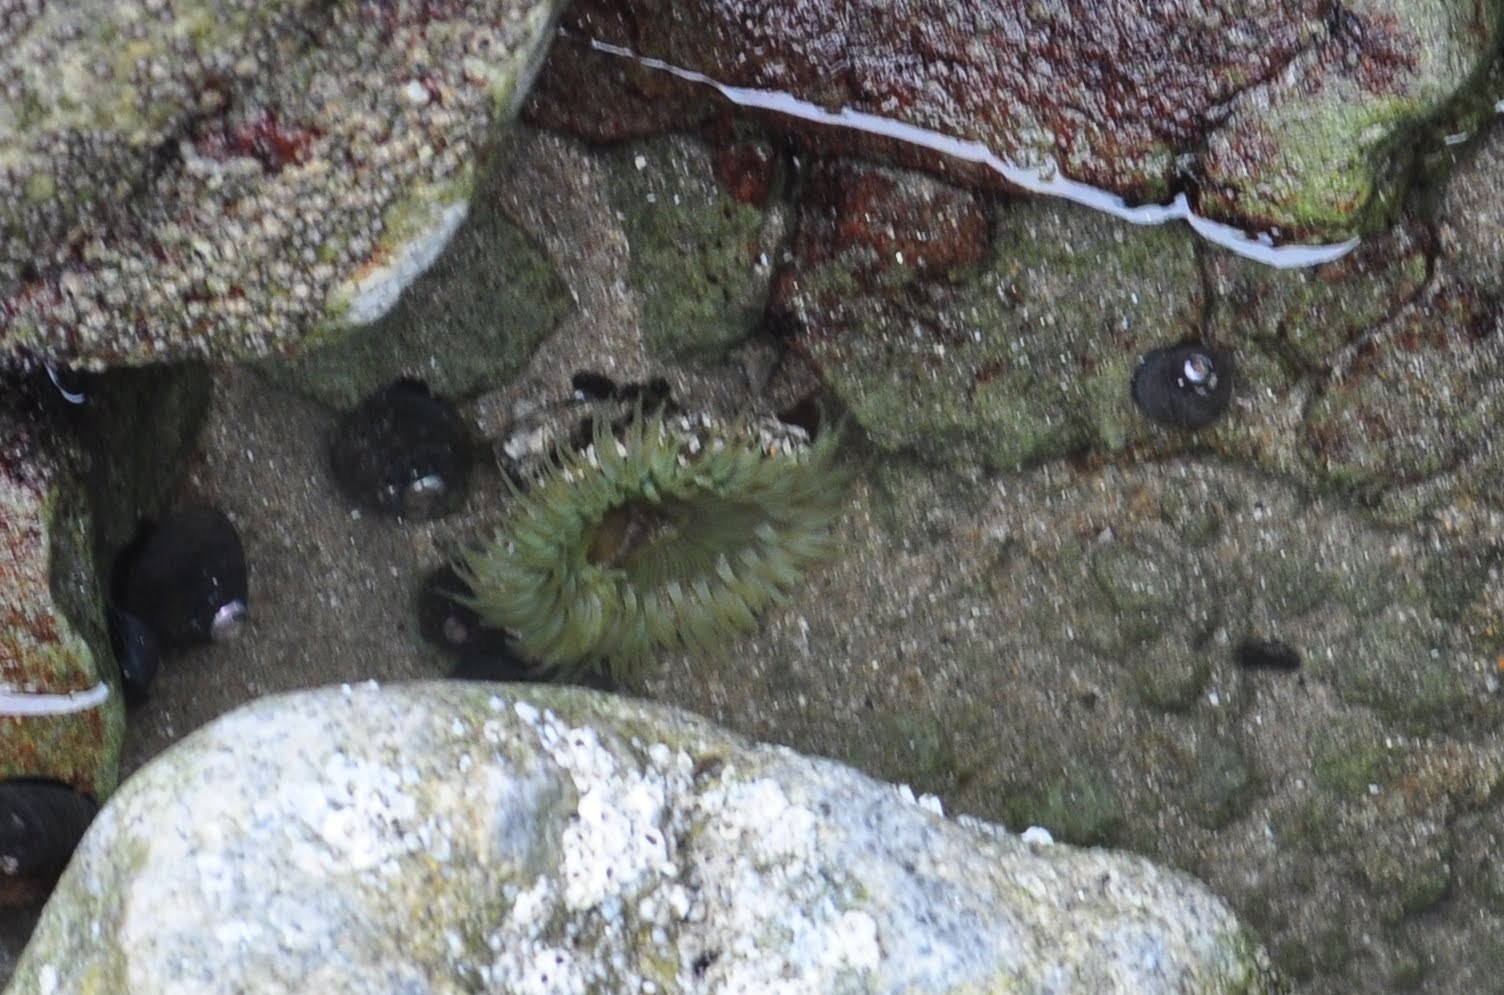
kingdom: Animalia
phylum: Cnidaria
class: Anthozoa
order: Actiniaria
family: Actiniidae
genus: Anthopleura
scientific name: Anthopleura sola
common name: Sun anemone
